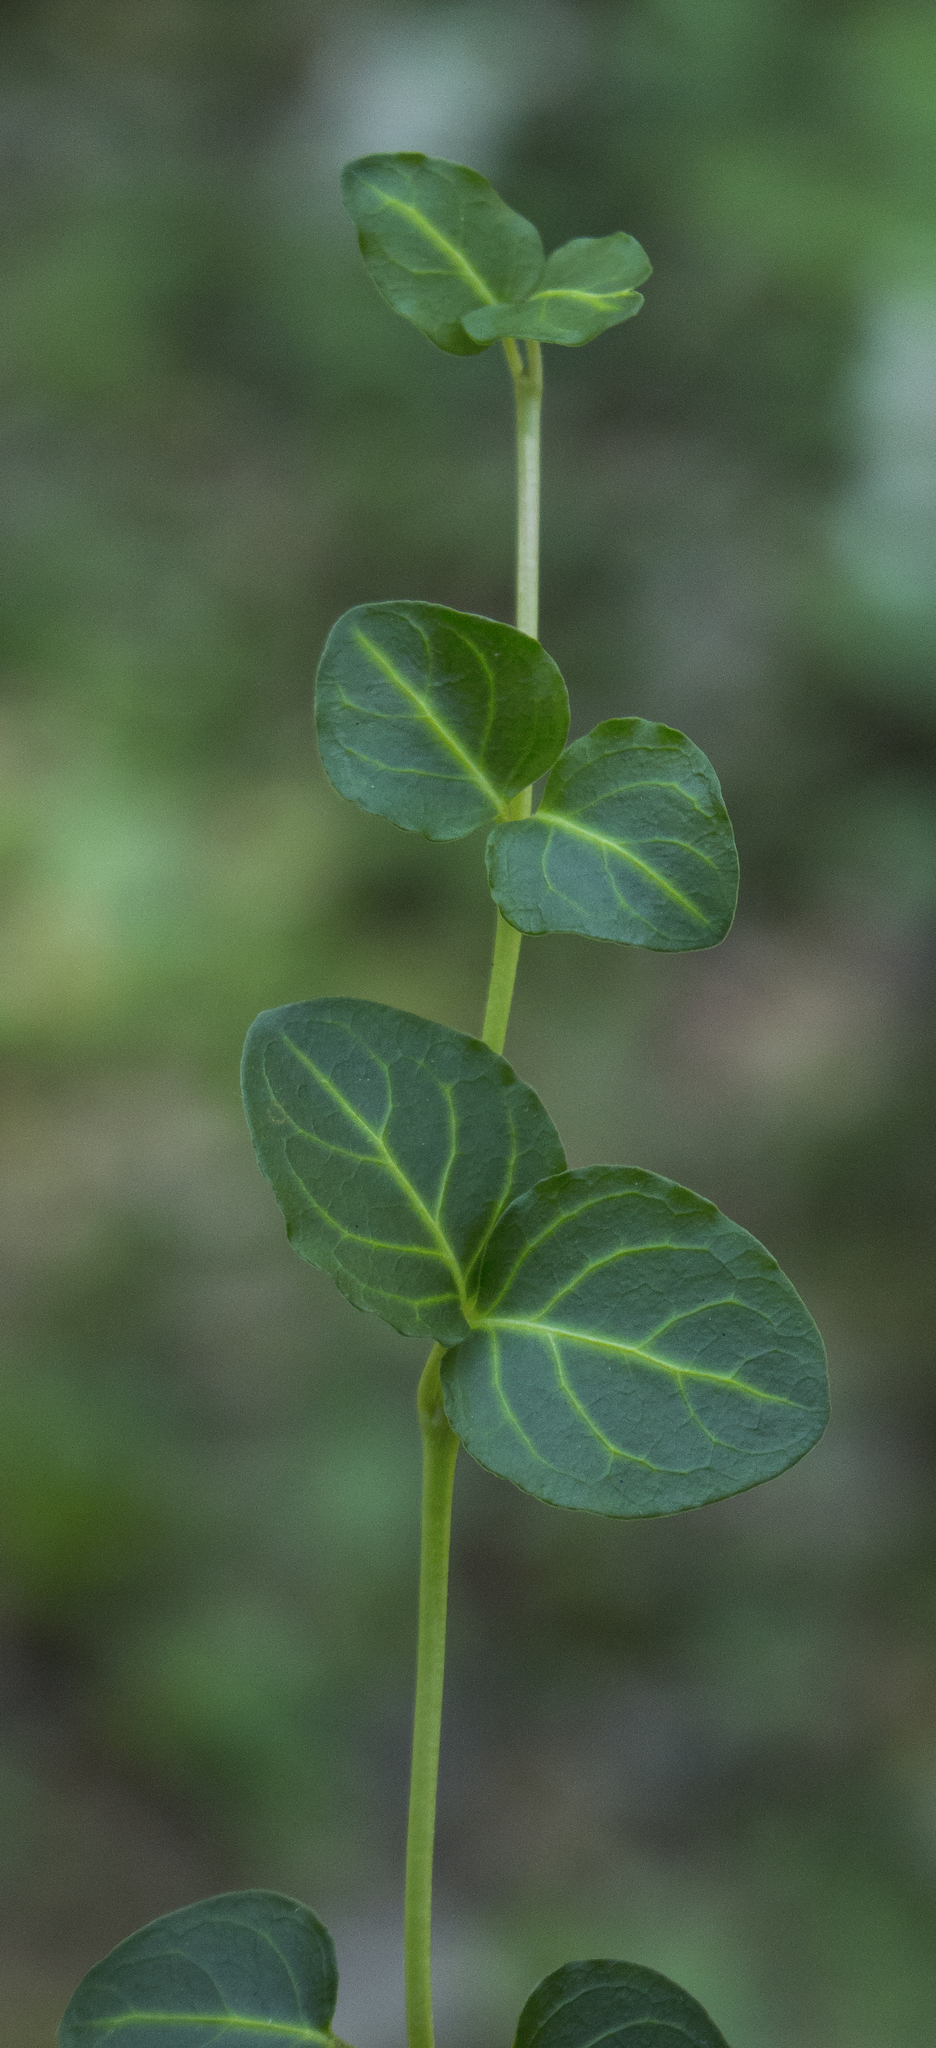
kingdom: Plantae
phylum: Tracheophyta
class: Magnoliopsida
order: Gentianales
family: Rubiaceae
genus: Mitchella
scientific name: Mitchella repens
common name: Partridge-berry
